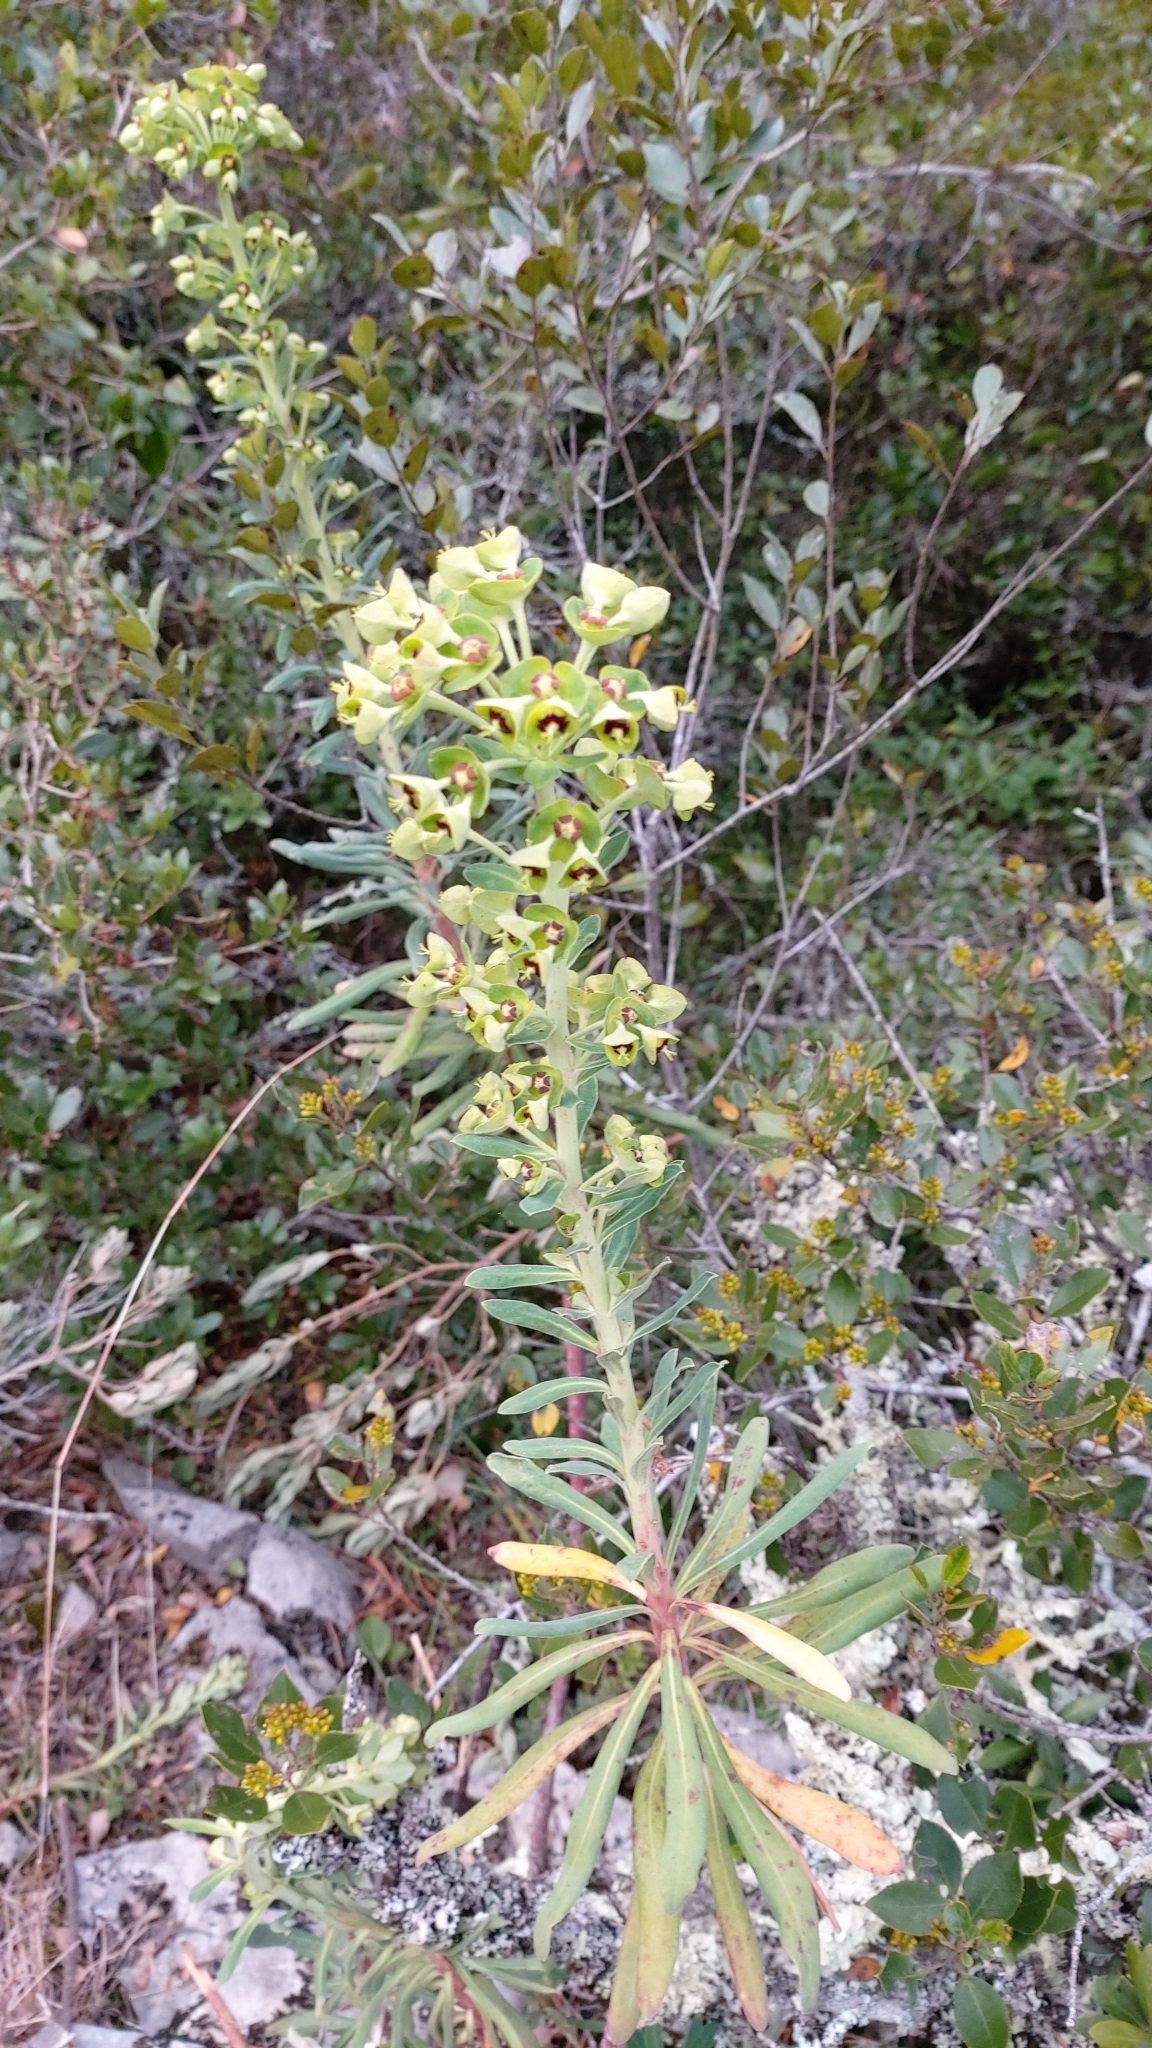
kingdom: Plantae
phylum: Tracheophyta
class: Magnoliopsida
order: Malpighiales
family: Euphorbiaceae
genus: Euphorbia
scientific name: Euphorbia characias
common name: Mediterranean spurge
